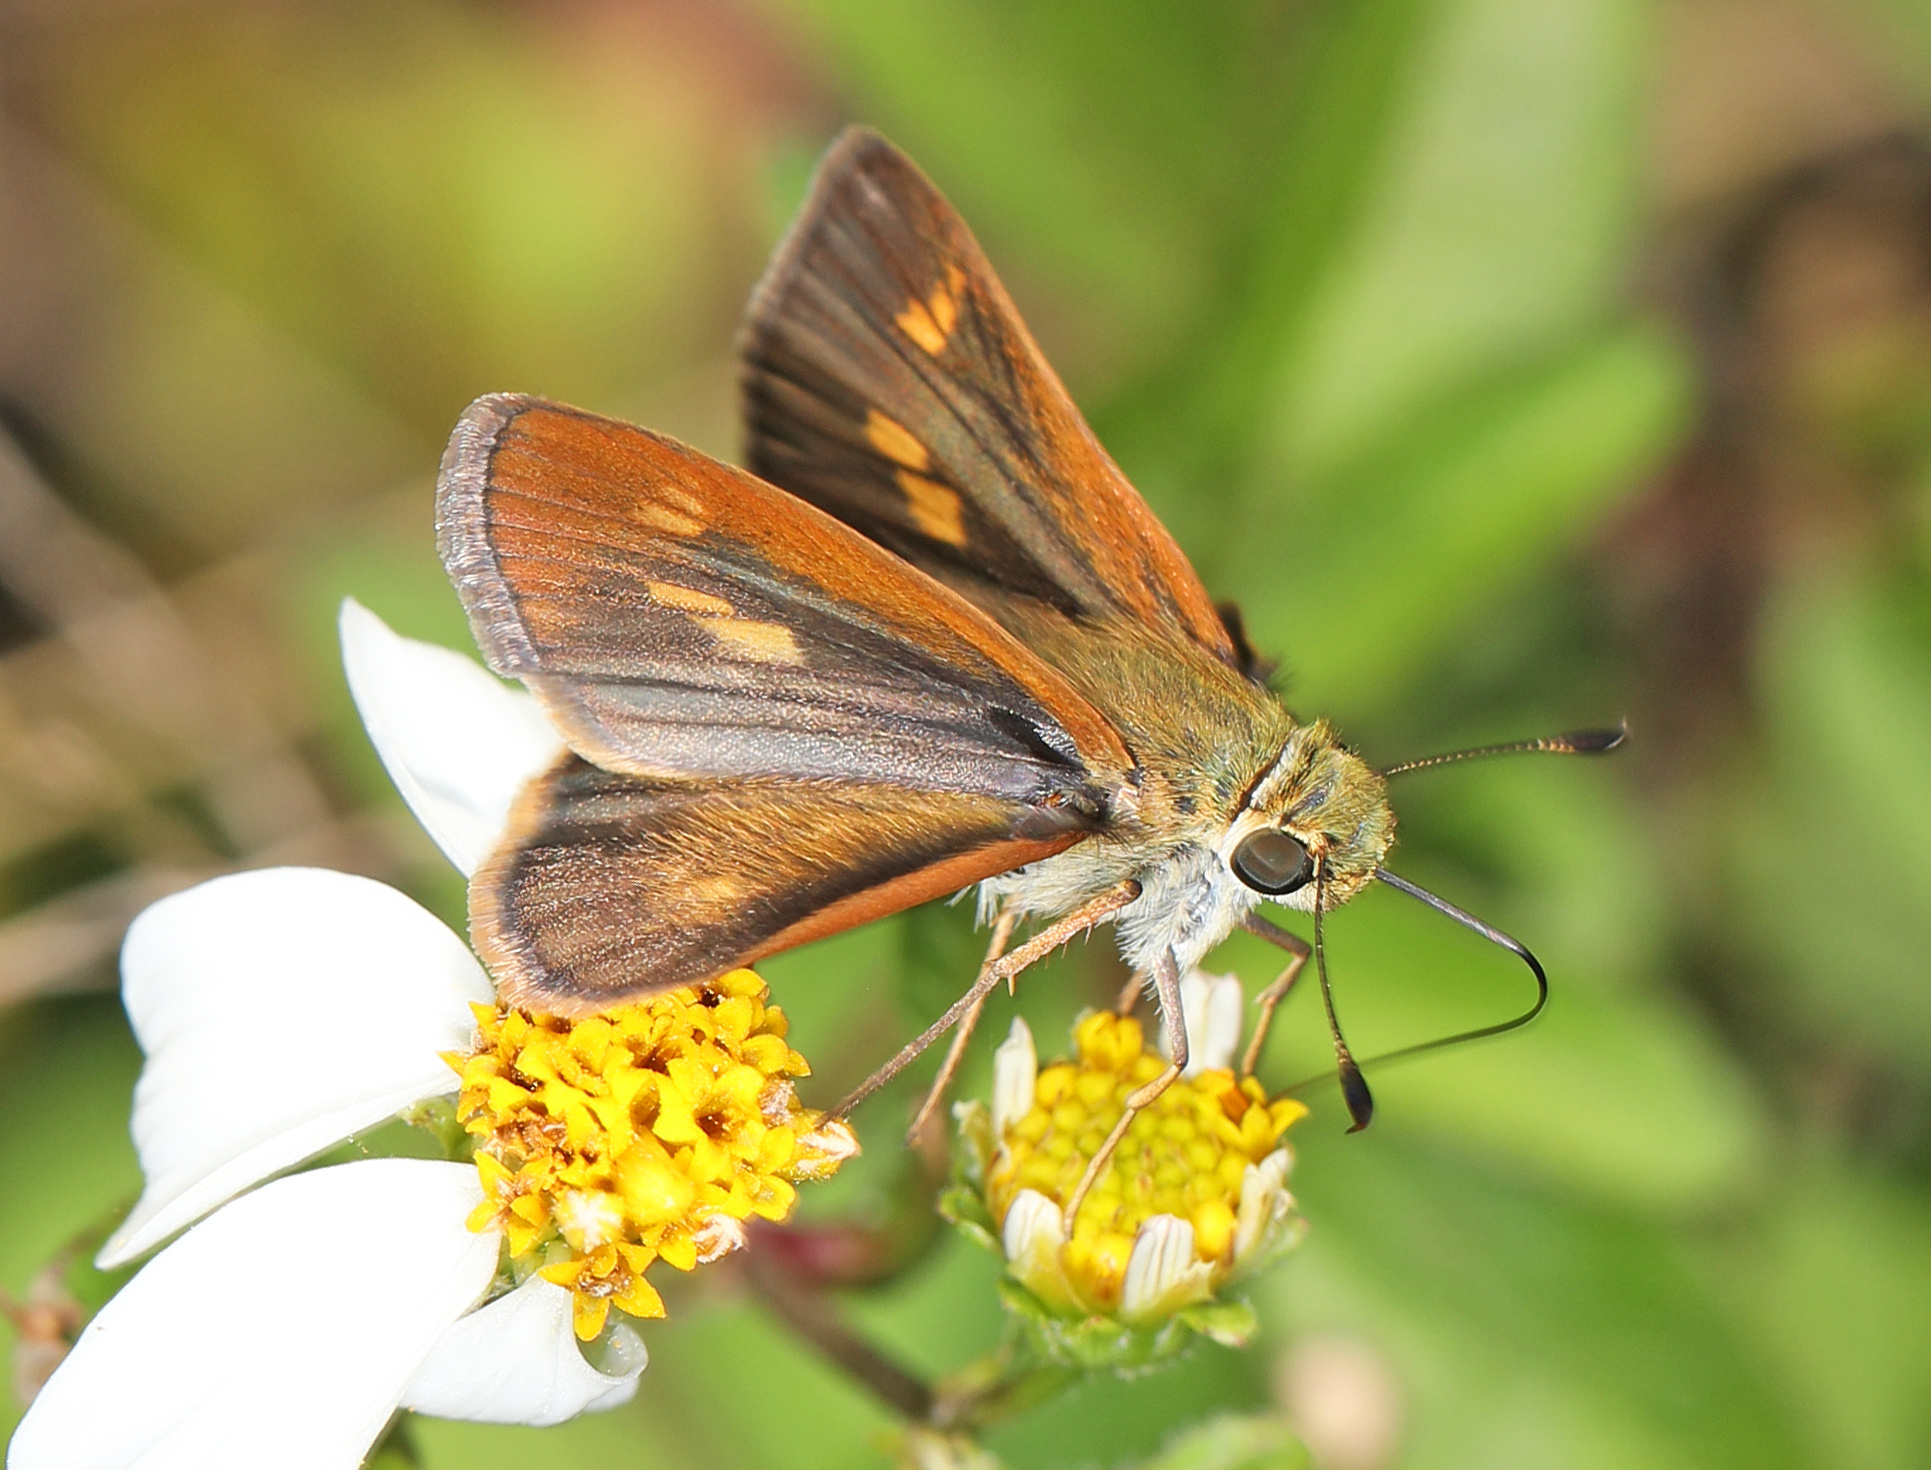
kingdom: Animalia
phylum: Arthropoda
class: Insecta
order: Lepidoptera
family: Hesperiidae
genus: Polites
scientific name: Polites otho
